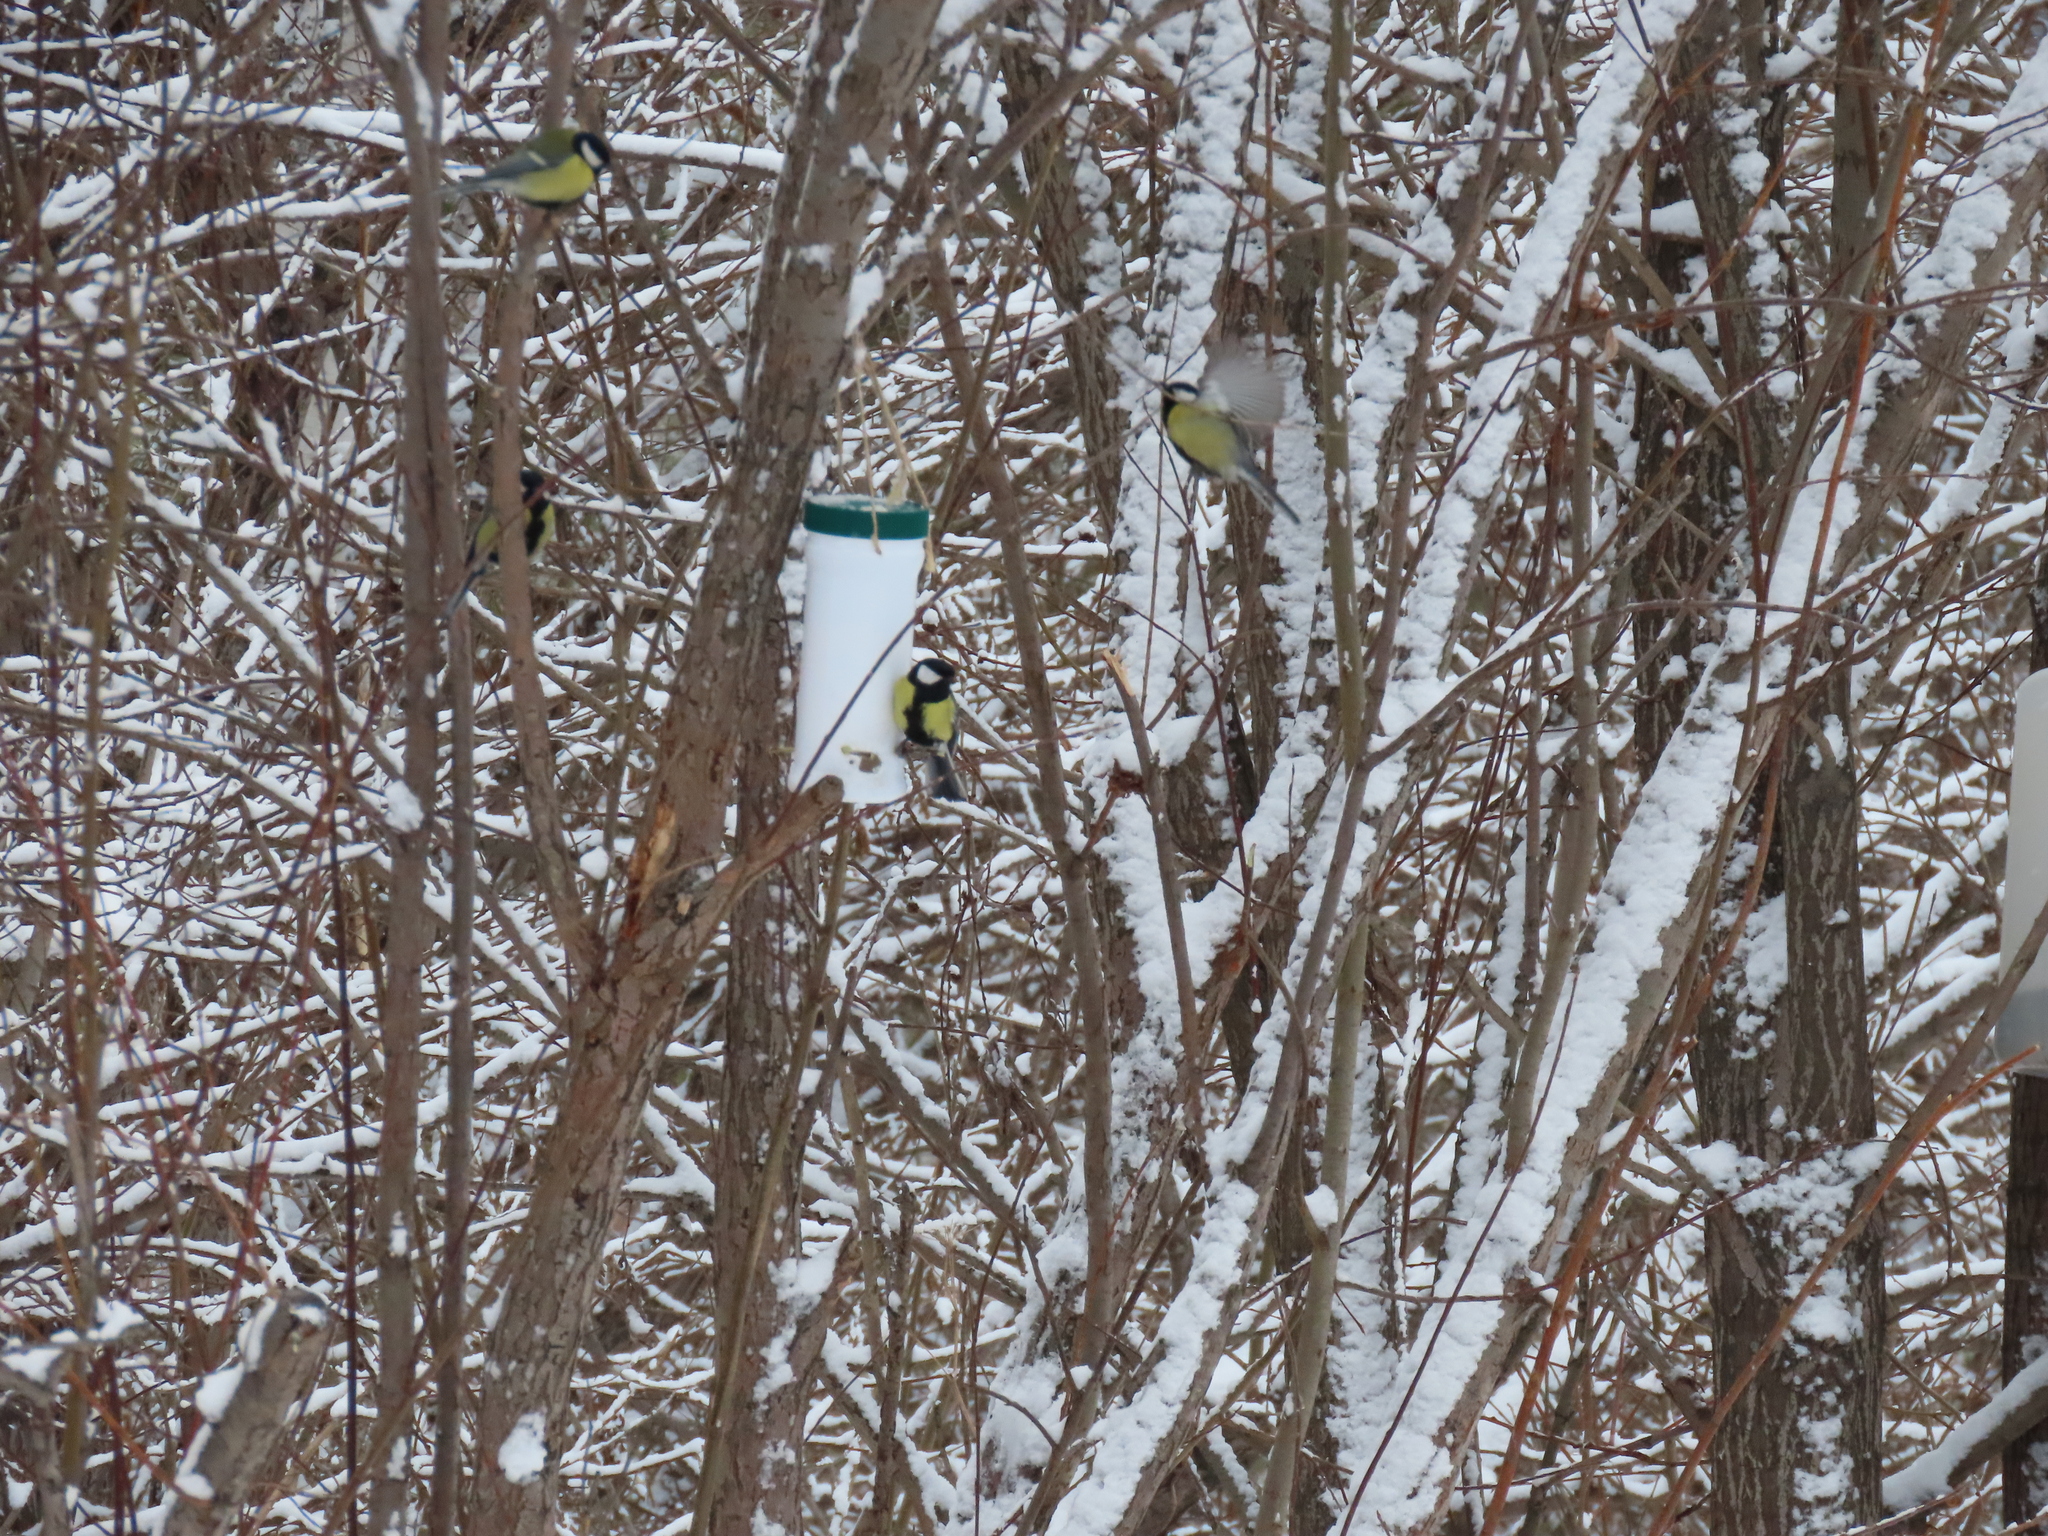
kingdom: Animalia
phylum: Chordata
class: Aves
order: Passeriformes
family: Paridae
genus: Parus
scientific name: Parus major
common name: Great tit
